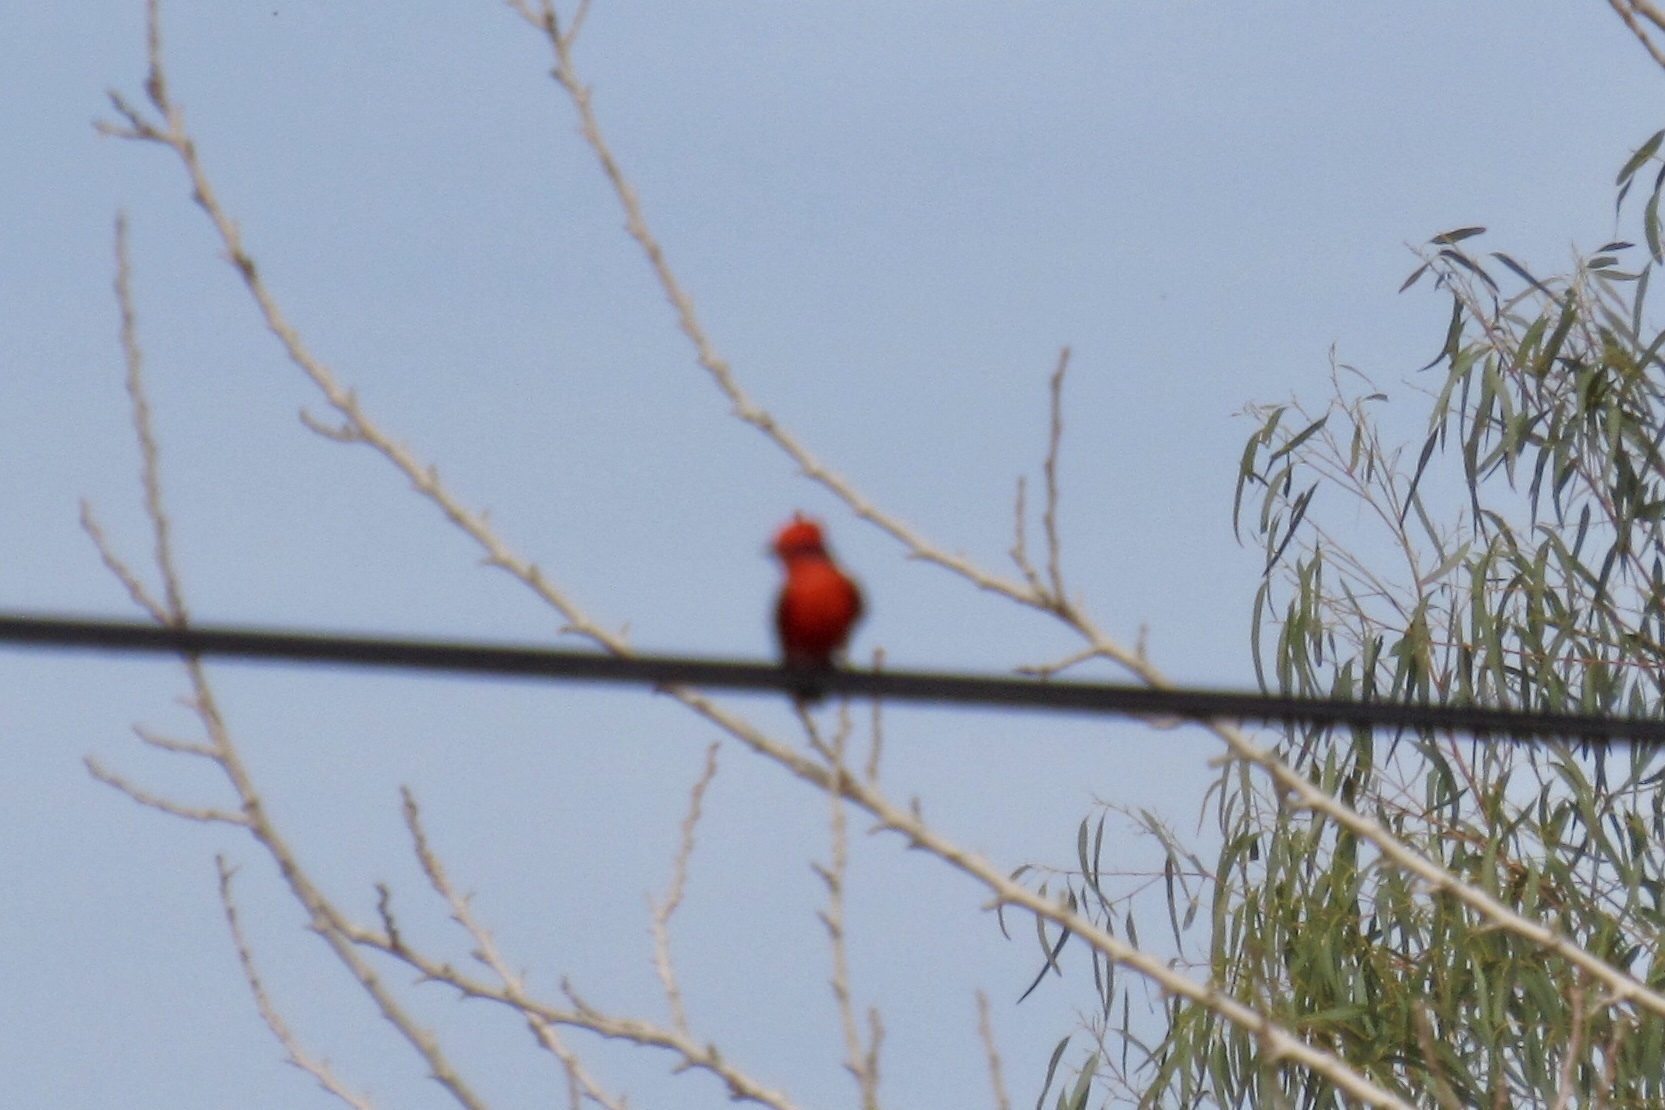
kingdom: Animalia
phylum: Chordata
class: Aves
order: Passeriformes
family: Tyrannidae
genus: Pyrocephalus
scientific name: Pyrocephalus rubinus
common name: Vermilion flycatcher
